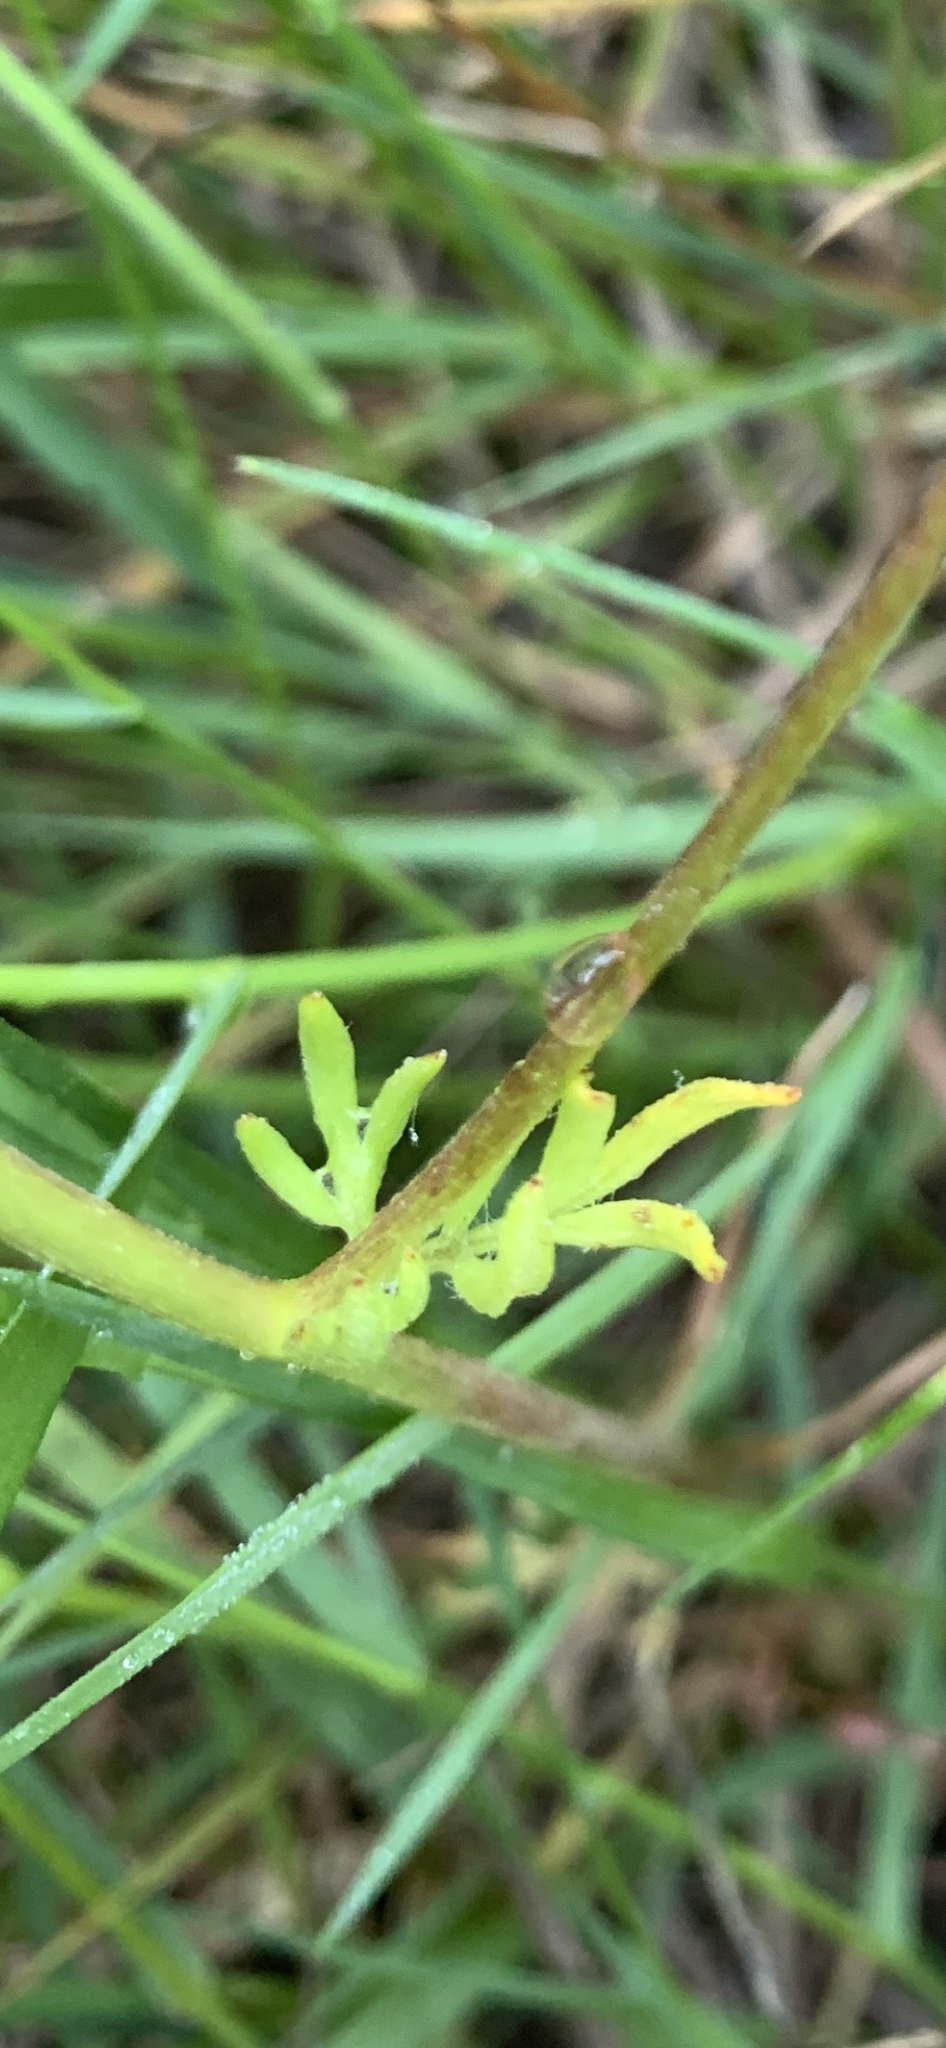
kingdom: Plantae
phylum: Tracheophyta
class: Magnoliopsida
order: Brassicales
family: Limnanthaceae
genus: Limnanthes
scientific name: Limnanthes alba
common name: Meadowfoam
